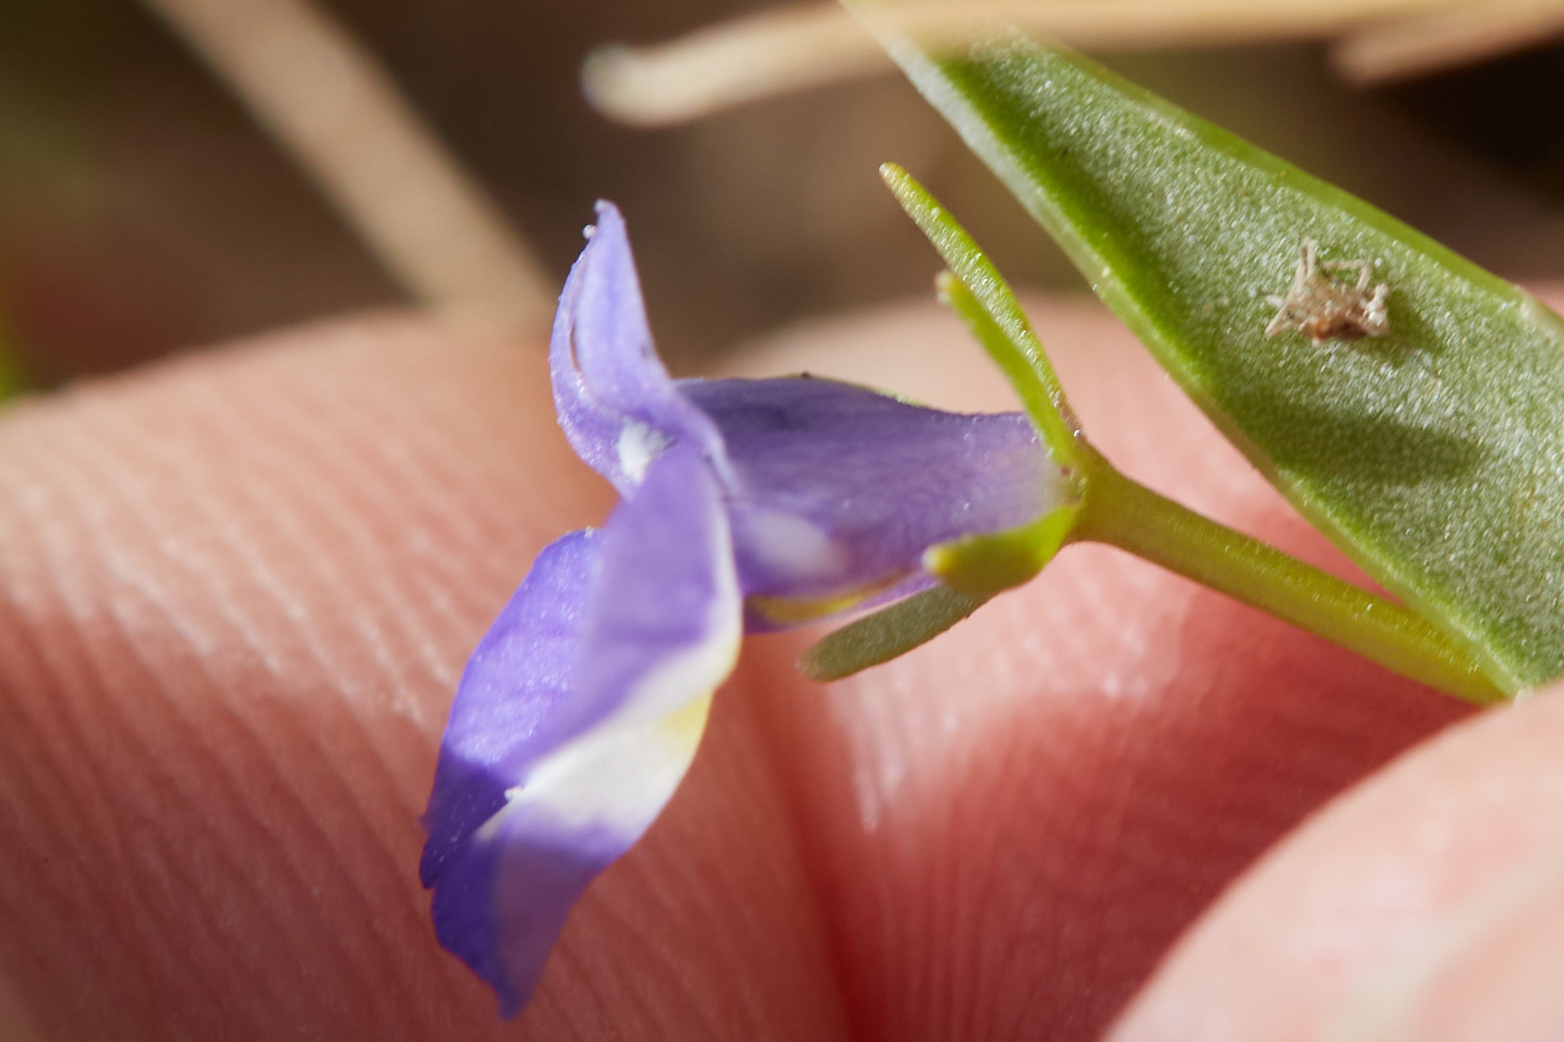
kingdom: Plantae
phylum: Tracheophyta
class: Magnoliopsida
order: Asterales
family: Campanulaceae
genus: Downingia
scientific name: Downingia bicornuta
